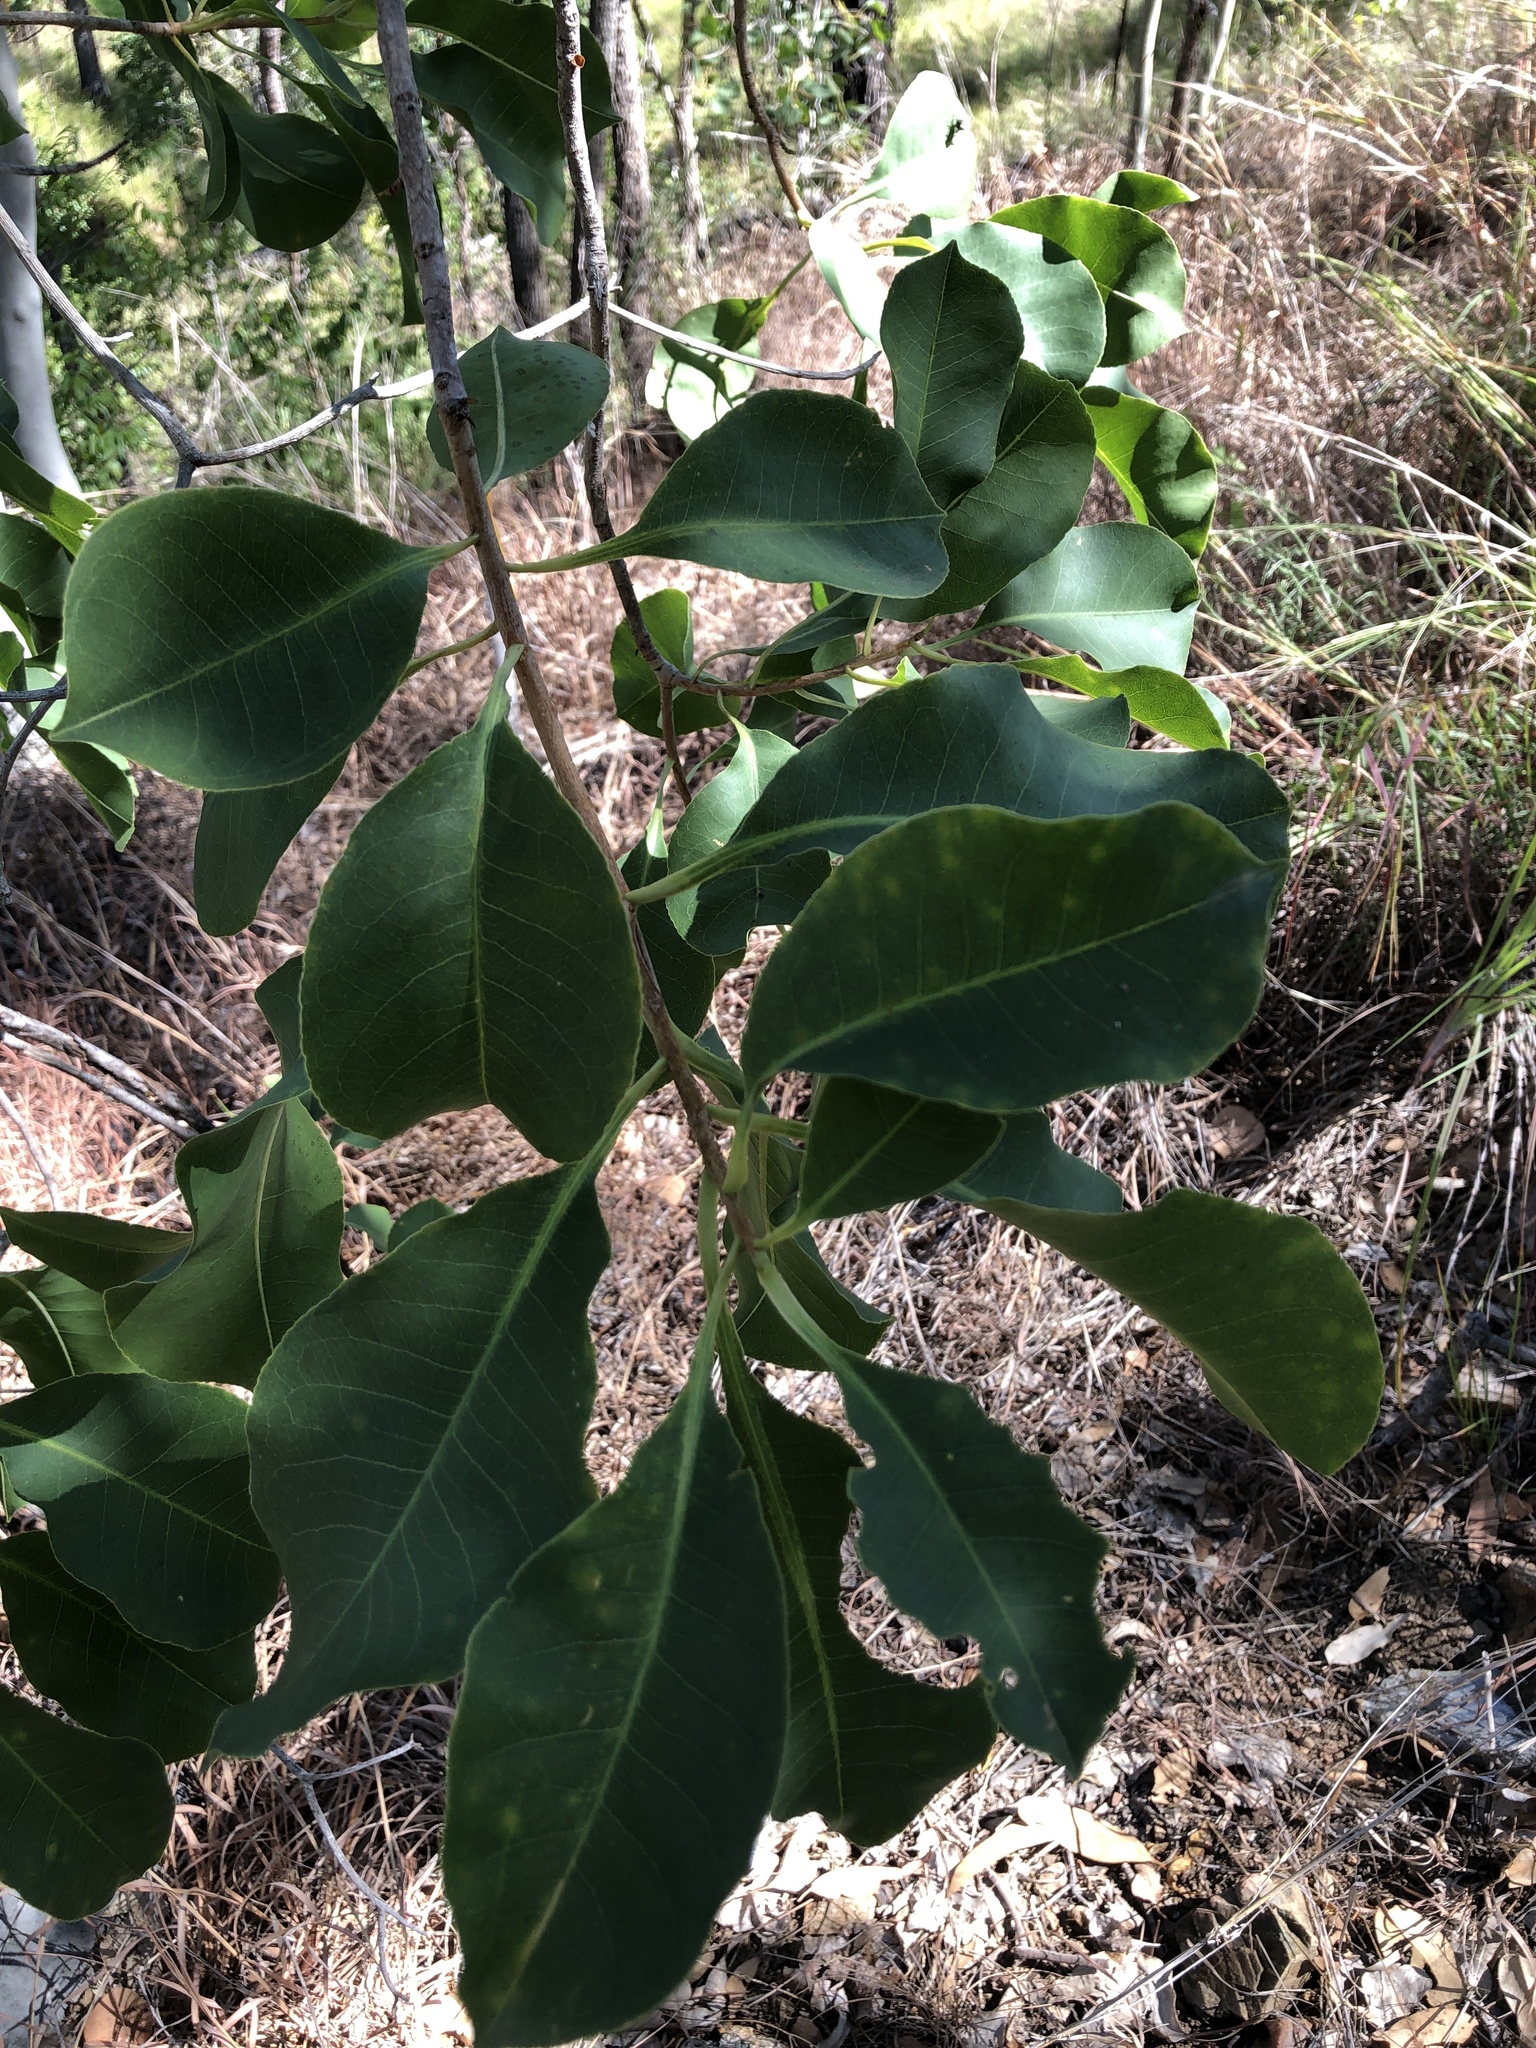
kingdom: Plantae
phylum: Tracheophyta
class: Magnoliopsida
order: Ericales
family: Lecythidaceae
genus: Planchonia
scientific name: Planchonia careya
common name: Cockatoo-apple
